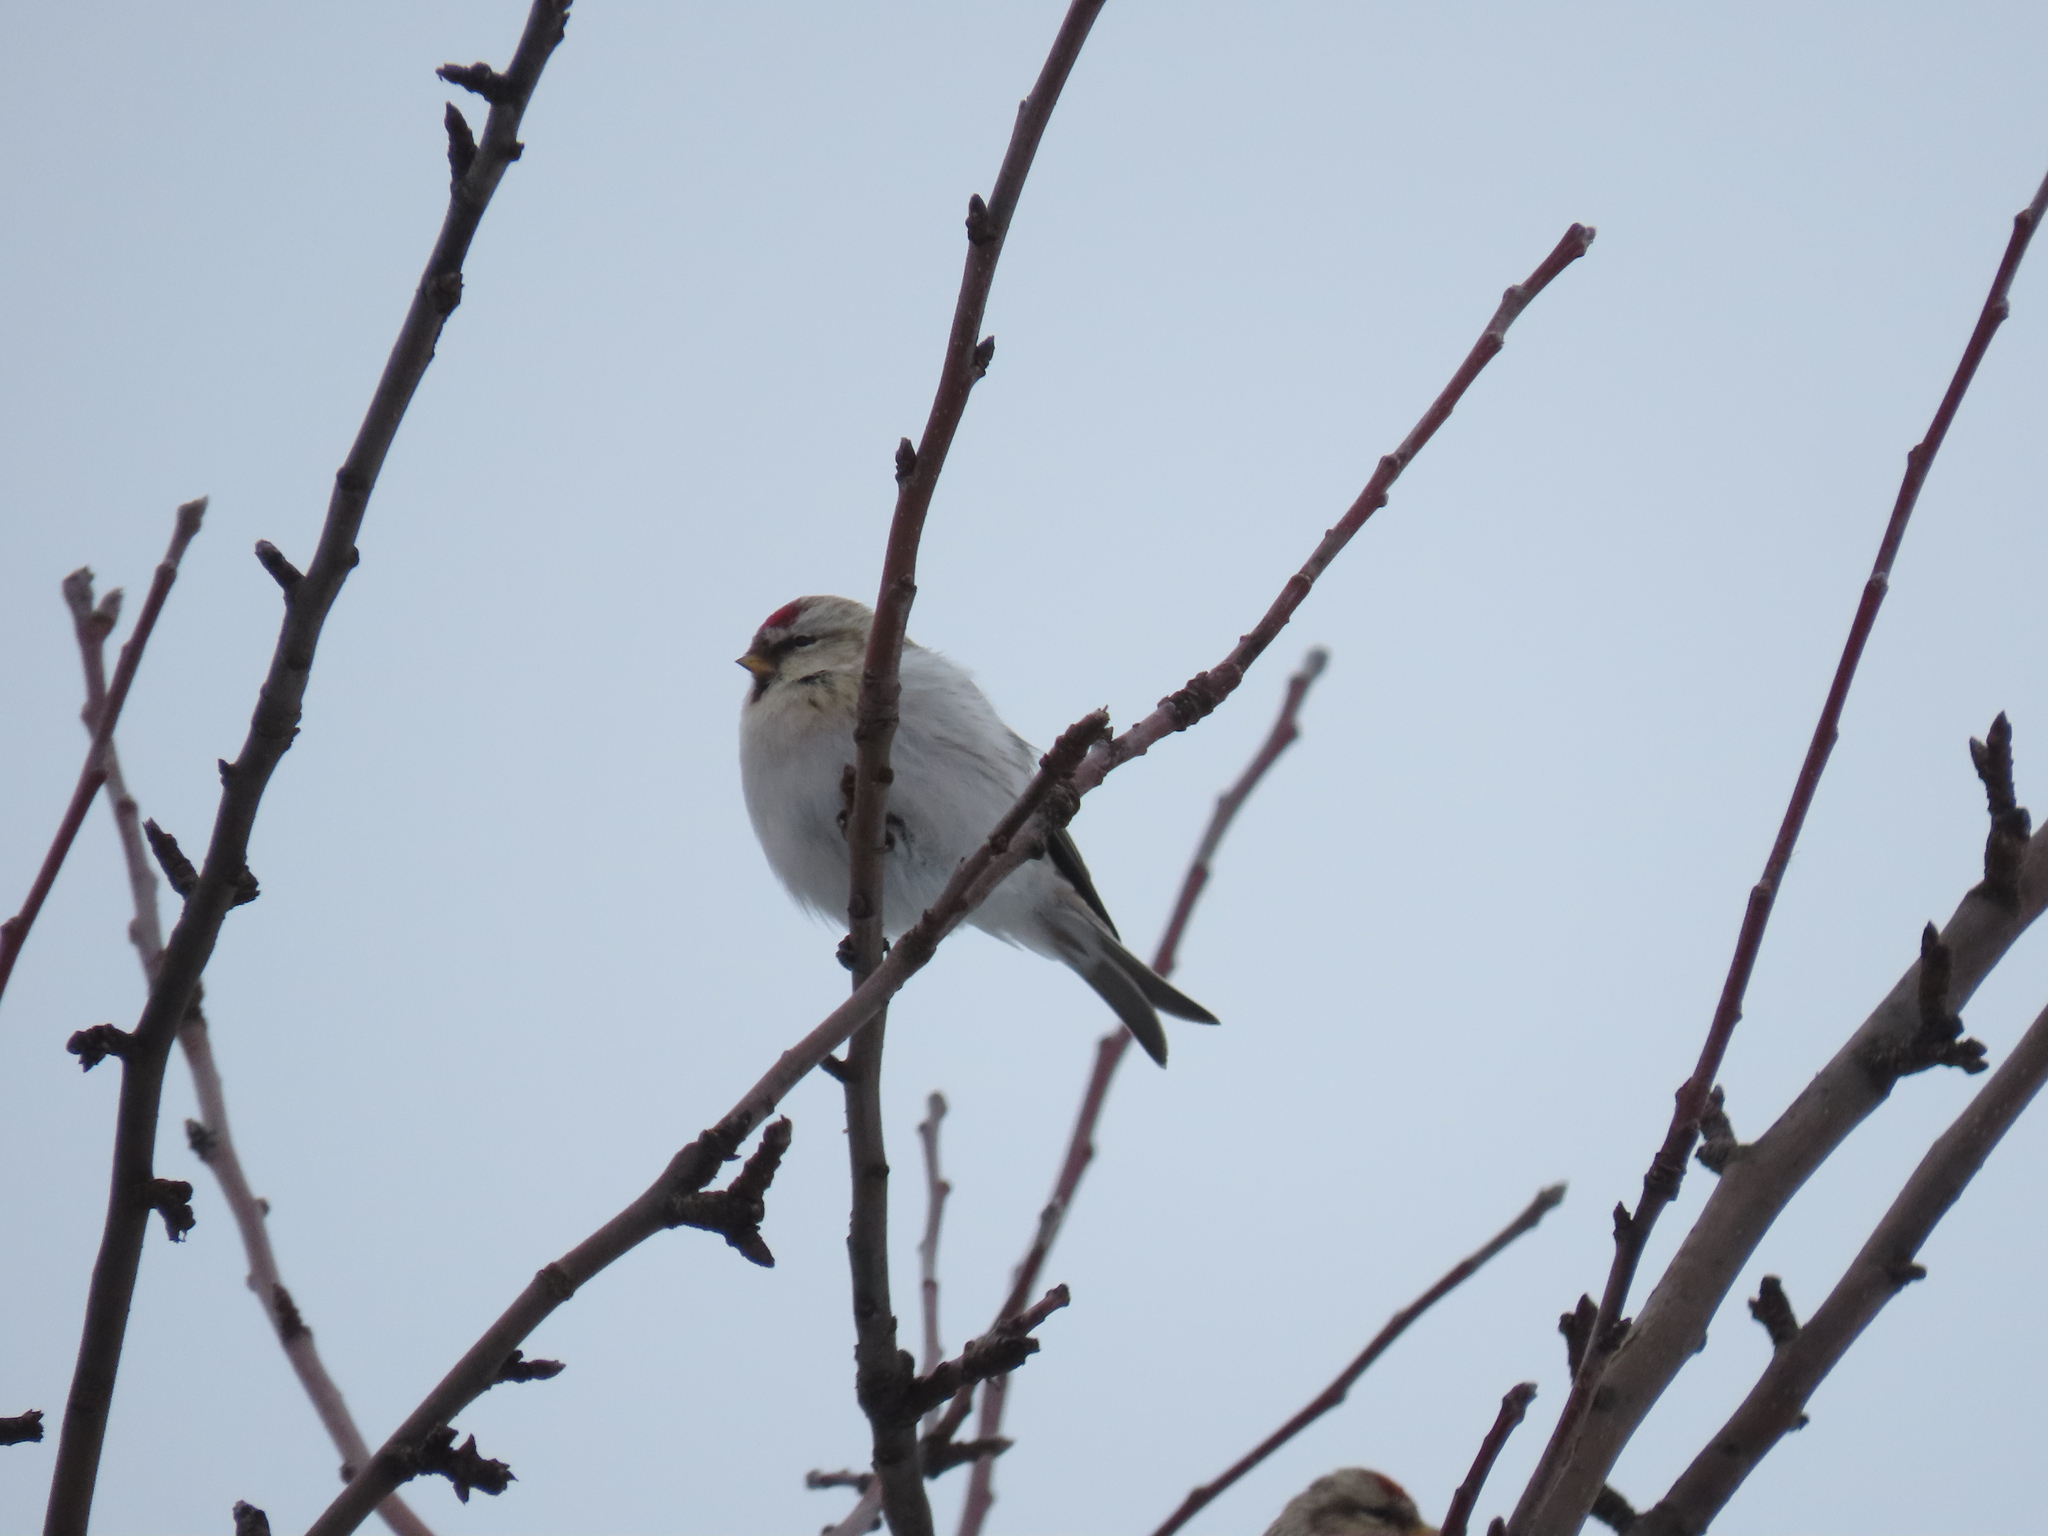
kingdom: Animalia
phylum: Chordata
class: Aves
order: Passeriformes
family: Fringillidae
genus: Acanthis
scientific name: Acanthis hornemanni
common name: Arctic redpoll
